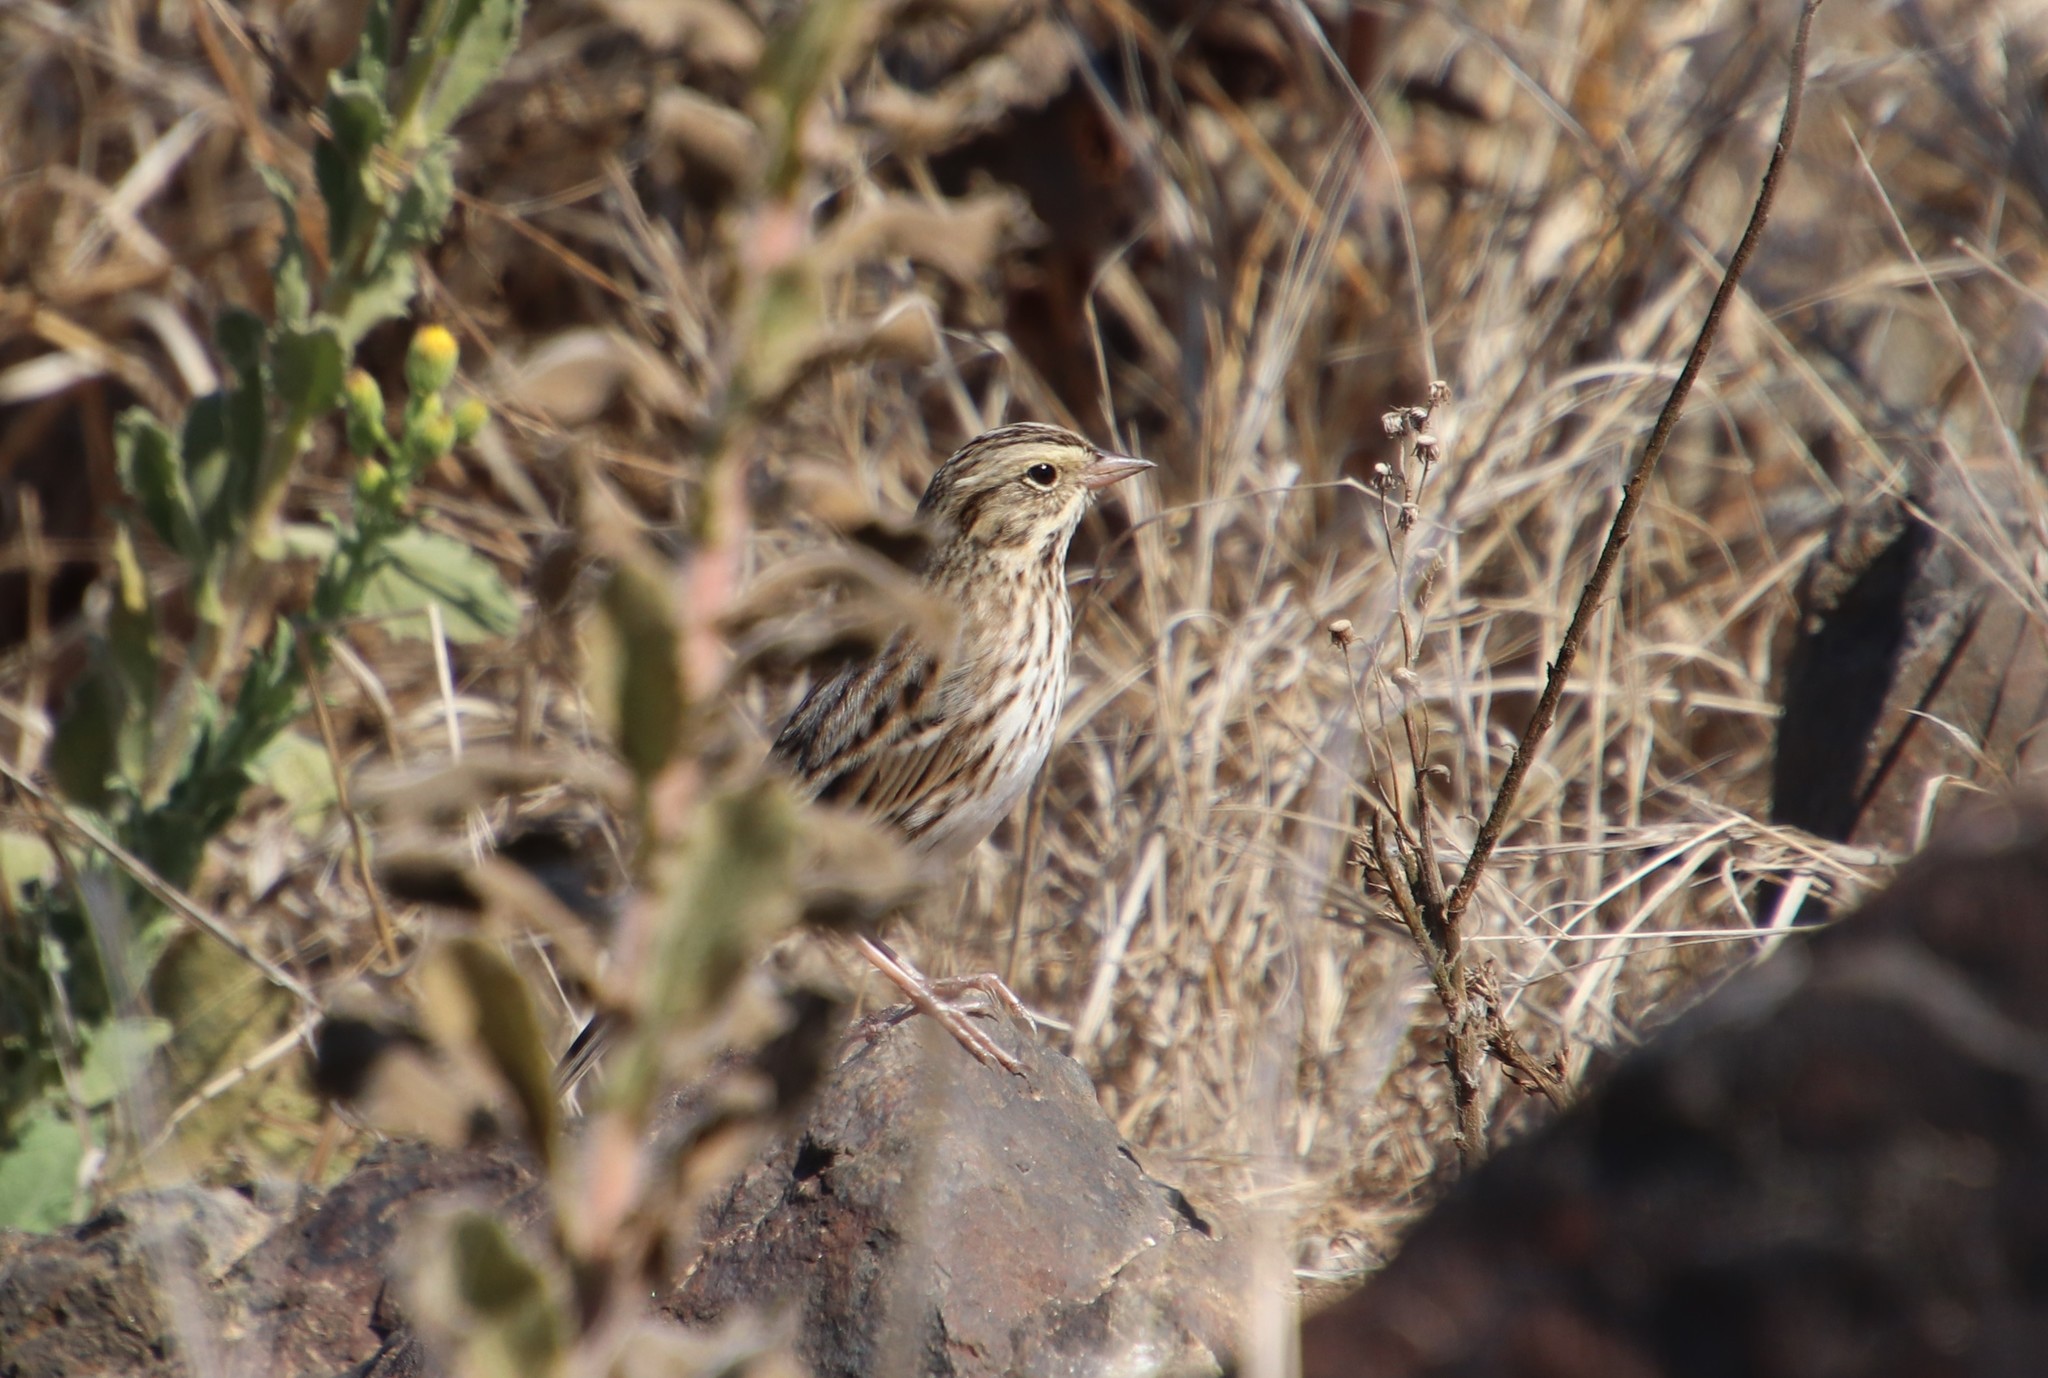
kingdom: Animalia
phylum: Chordata
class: Aves
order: Passeriformes
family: Passerellidae
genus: Passerculus
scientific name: Passerculus sandwichensis
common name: Savannah sparrow
